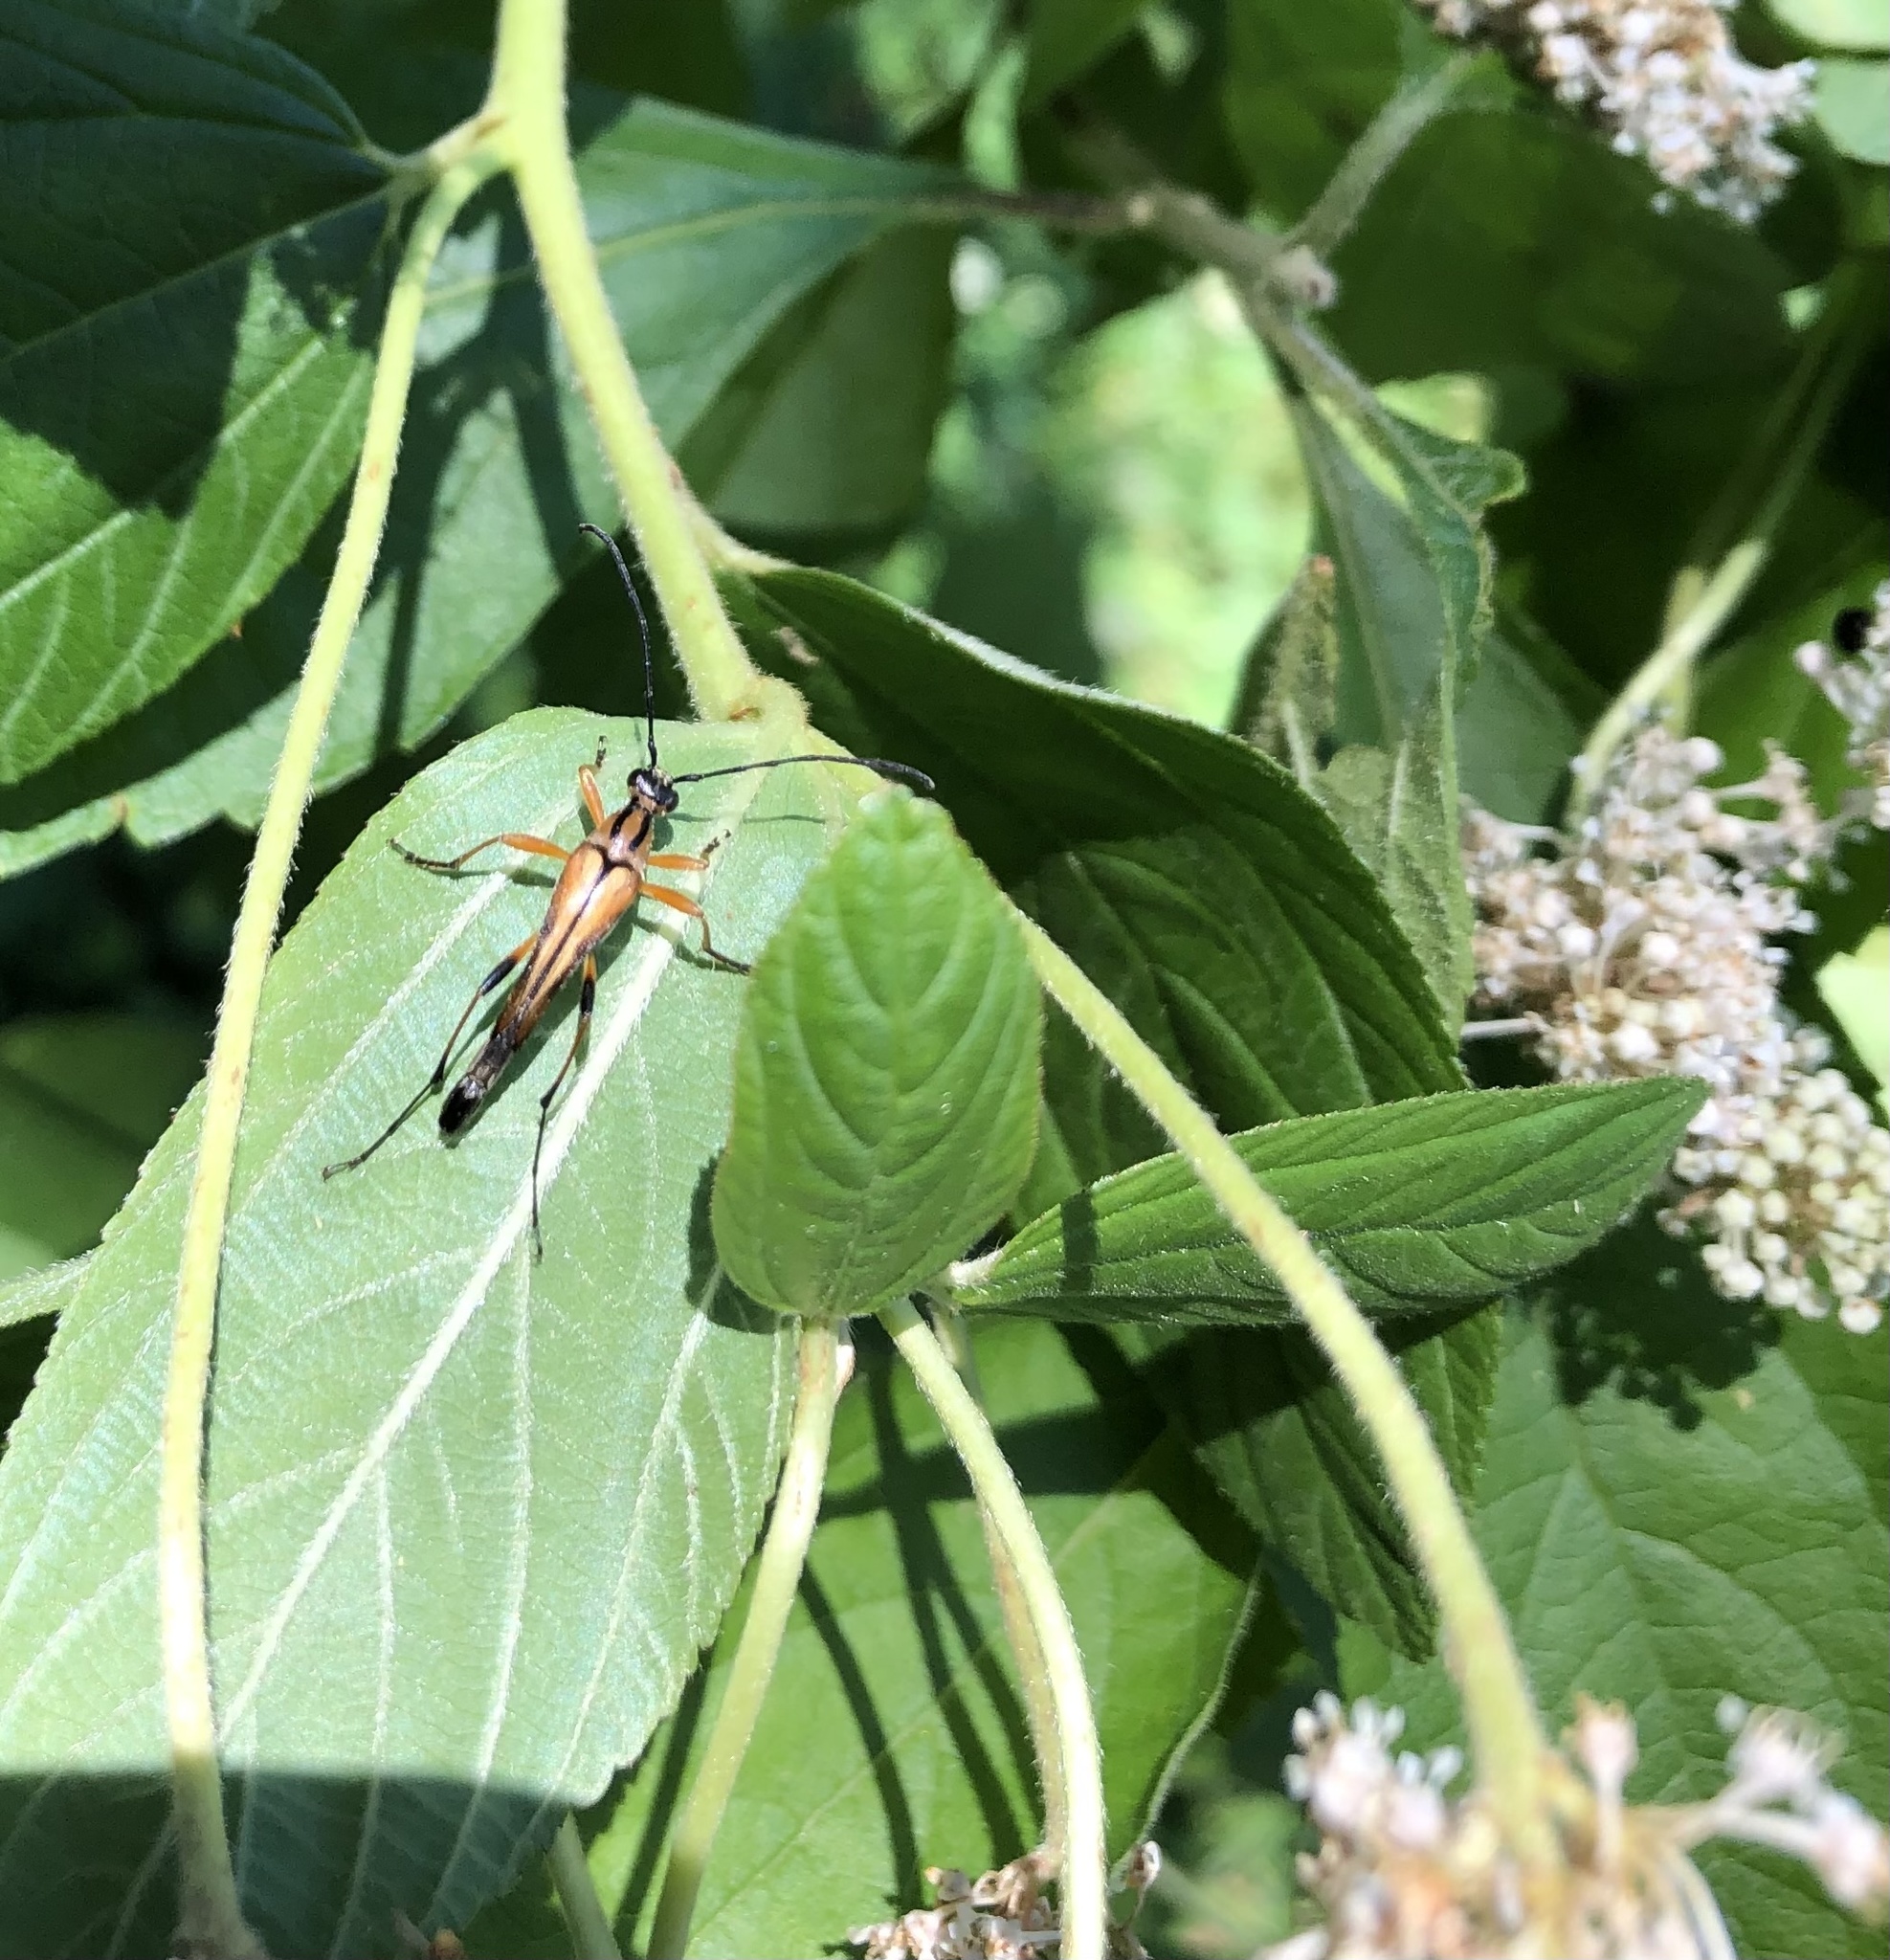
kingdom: Animalia
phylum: Arthropoda
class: Insecta
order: Coleoptera
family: Cerambycidae
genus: Strangalia
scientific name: Strangalia famelica
